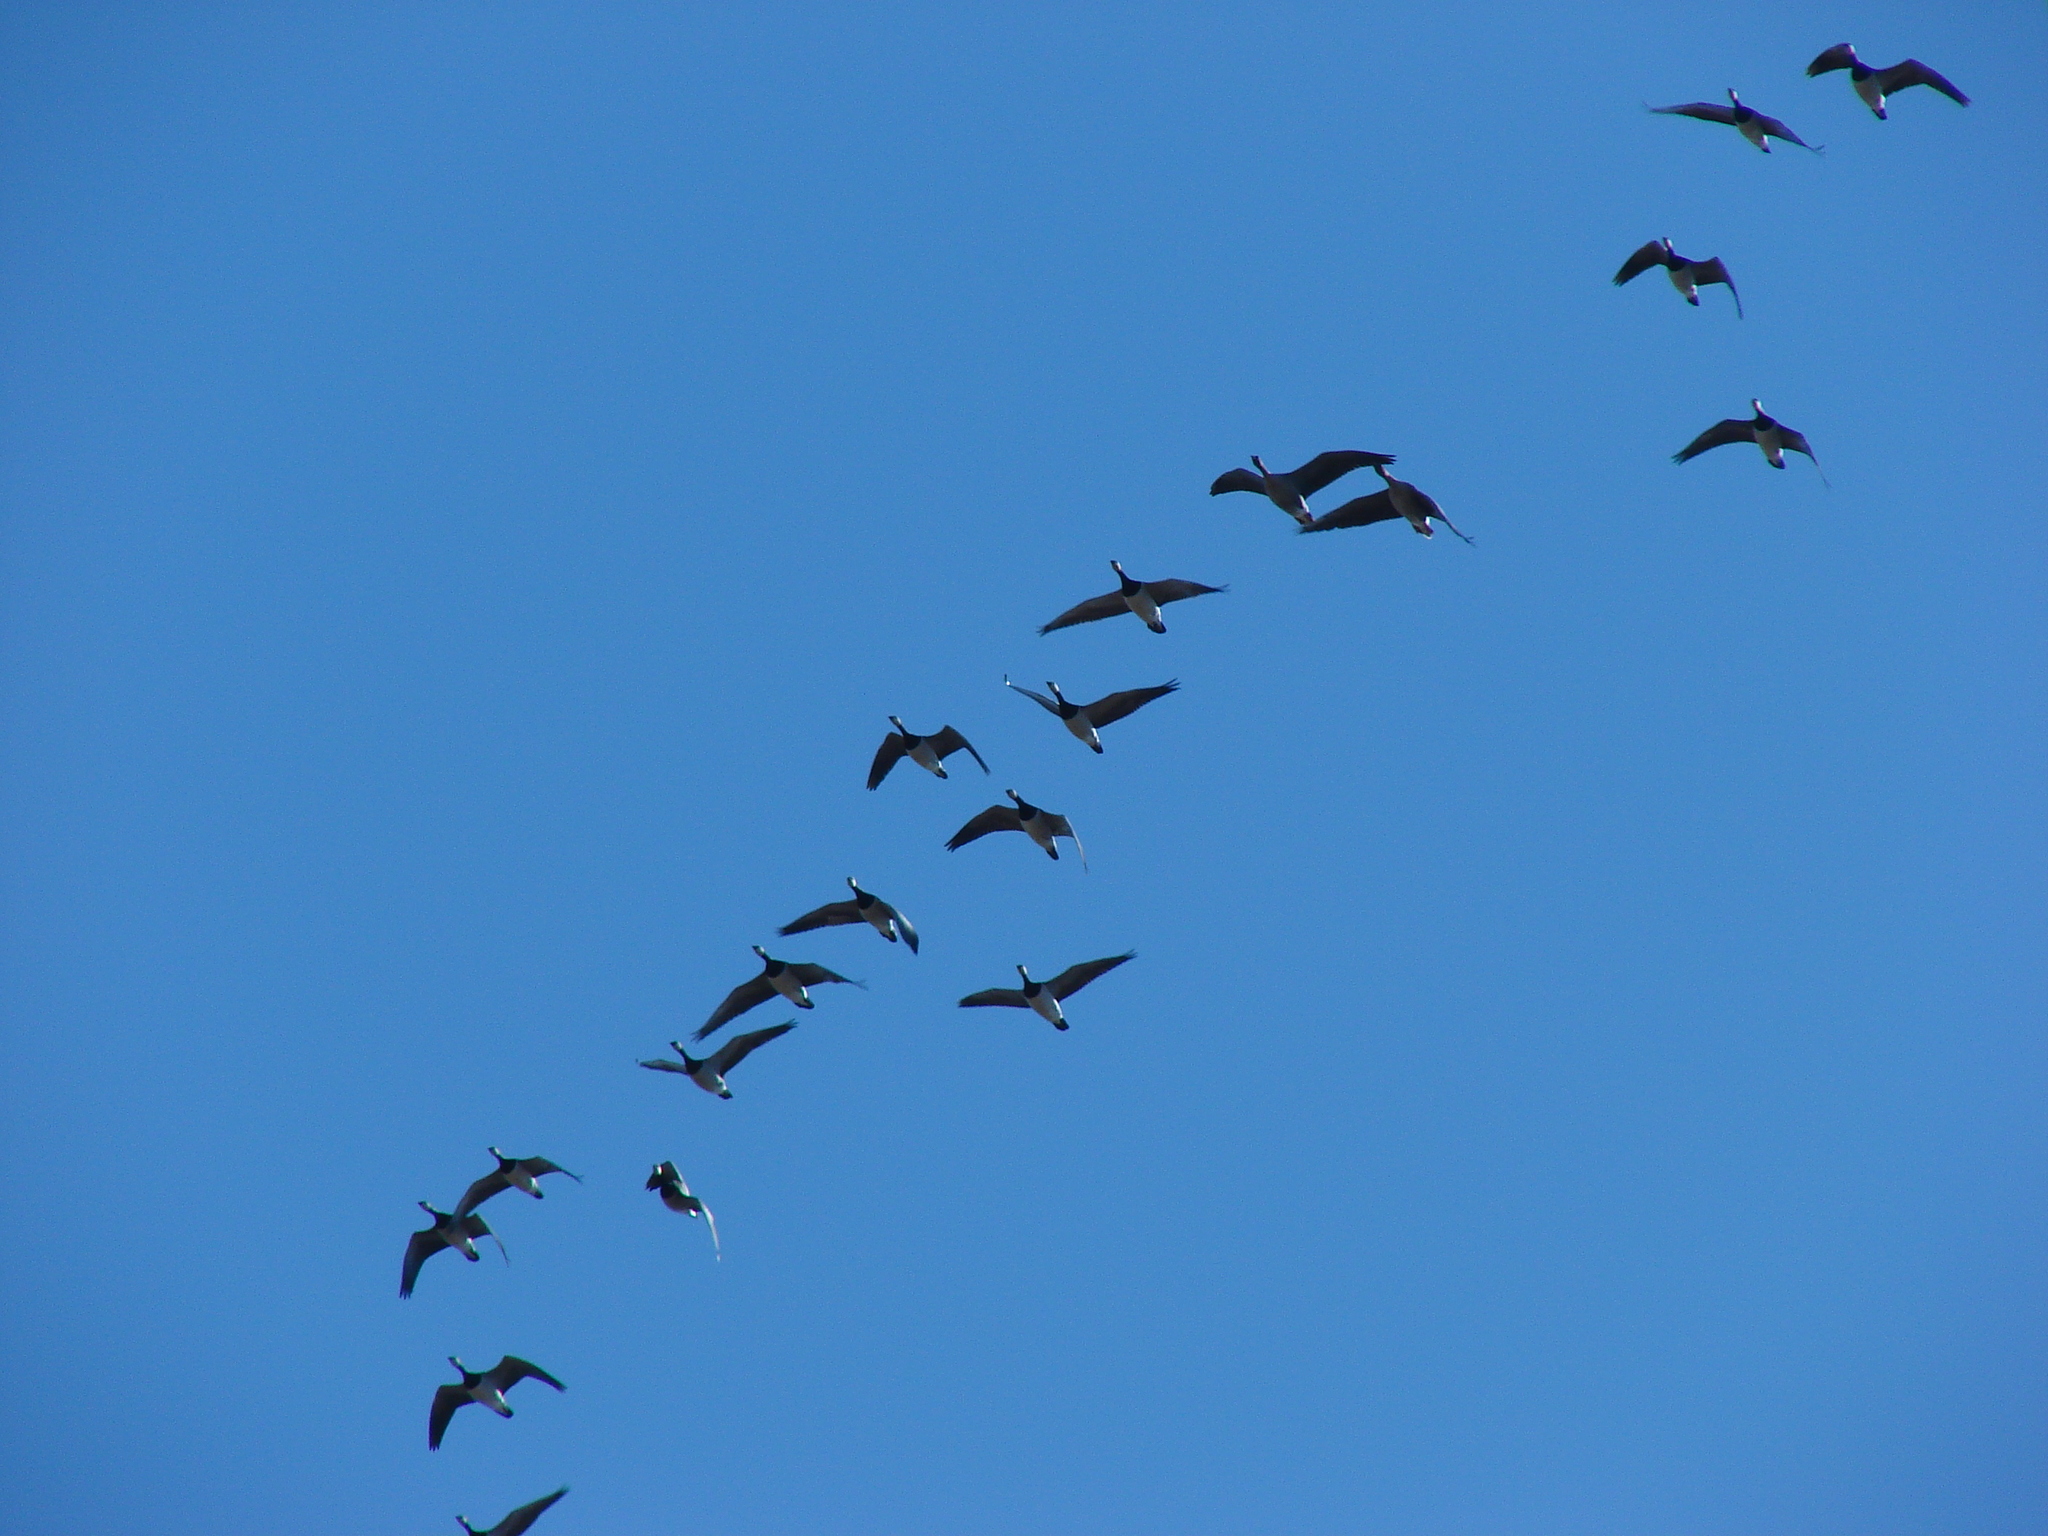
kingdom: Animalia
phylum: Chordata
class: Aves
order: Anseriformes
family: Anatidae
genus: Branta
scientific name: Branta leucopsis
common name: Barnacle goose
